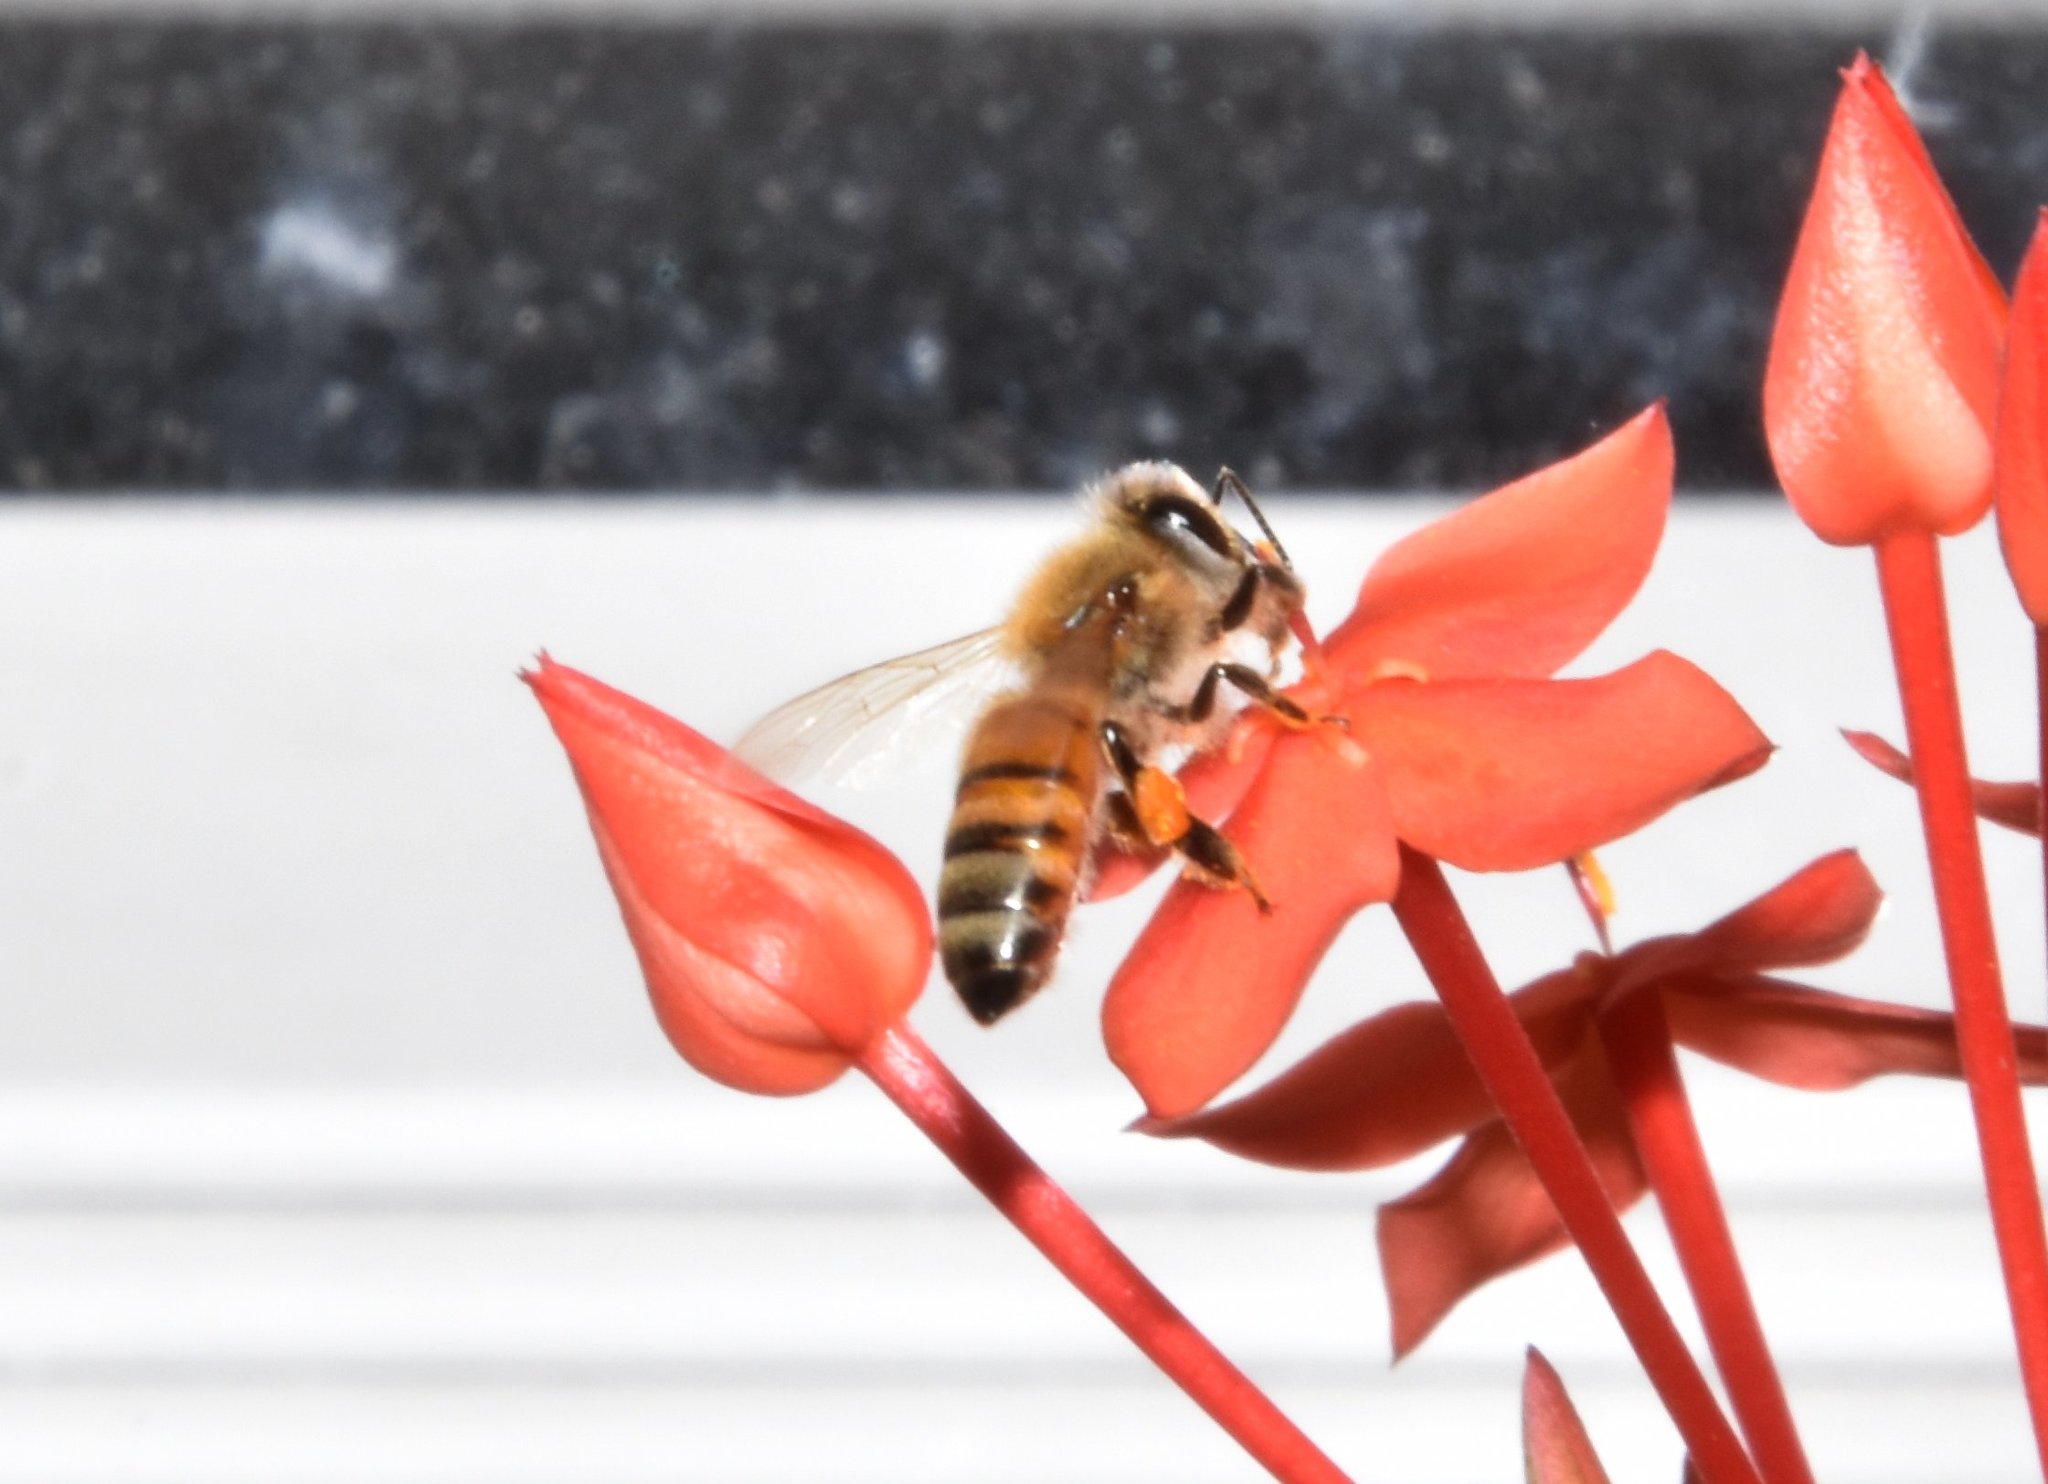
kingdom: Animalia
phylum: Arthropoda
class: Insecta
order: Hymenoptera
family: Apidae
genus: Apis
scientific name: Apis mellifera
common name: Honey bee
